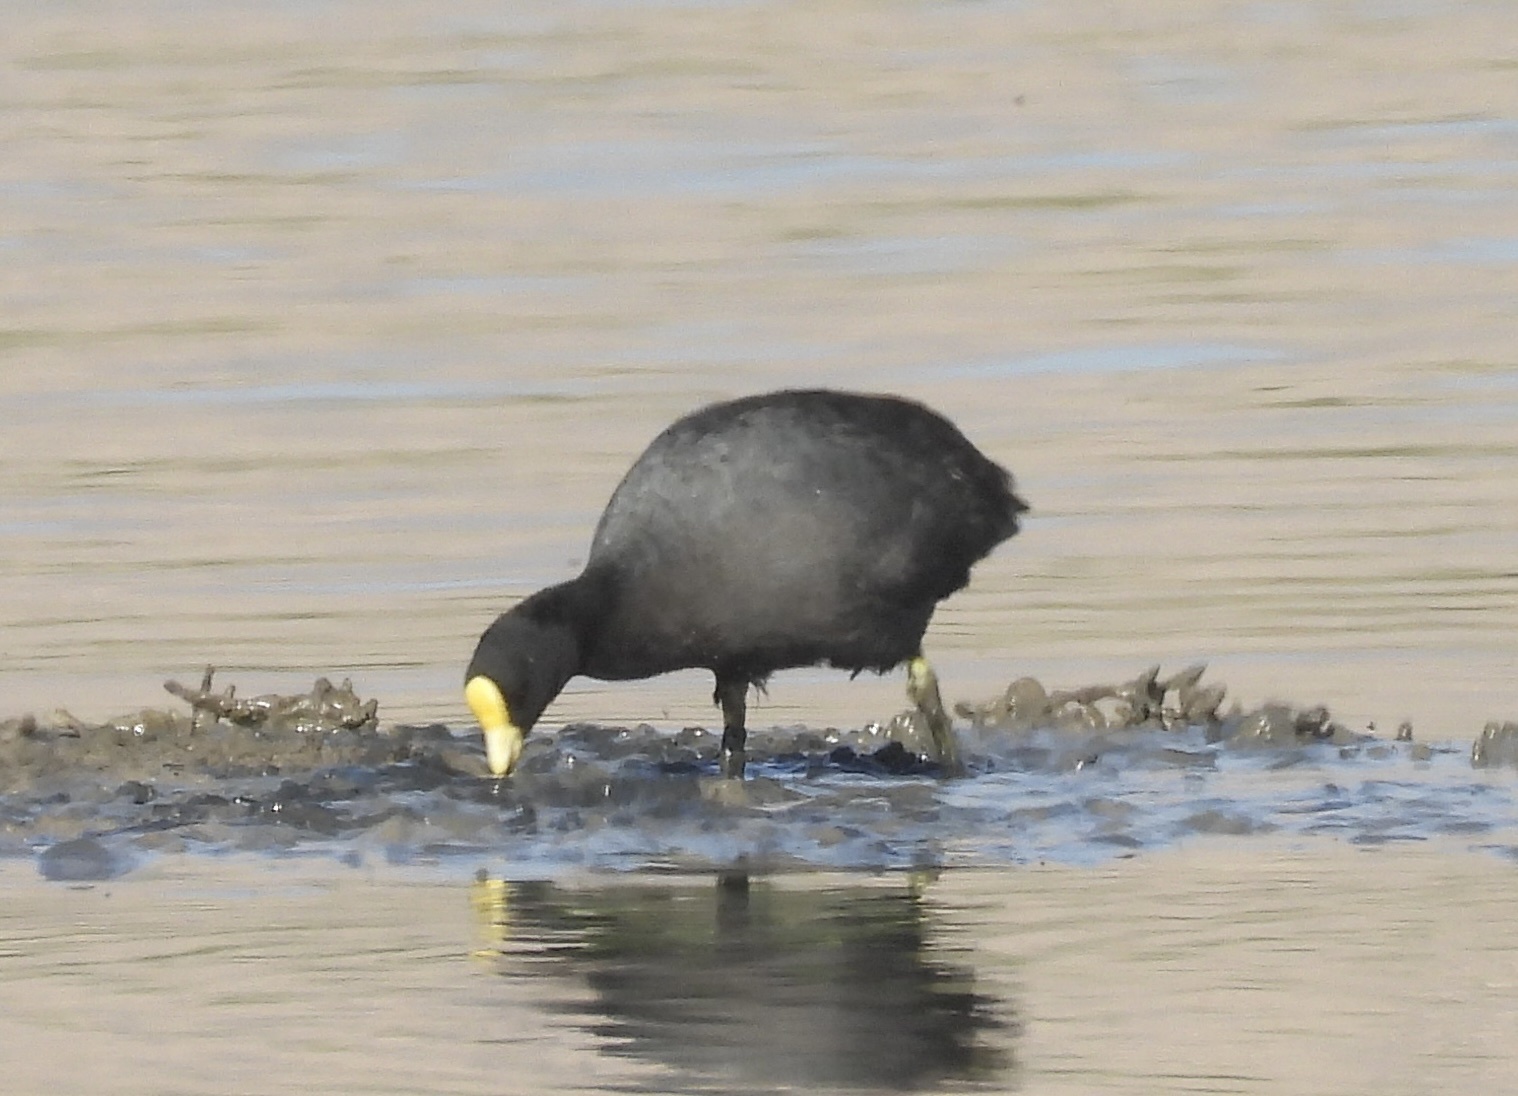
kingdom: Animalia
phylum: Chordata
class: Aves
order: Gruiformes
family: Rallidae
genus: Fulica
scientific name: Fulica leucoptera
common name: White-winged coot
